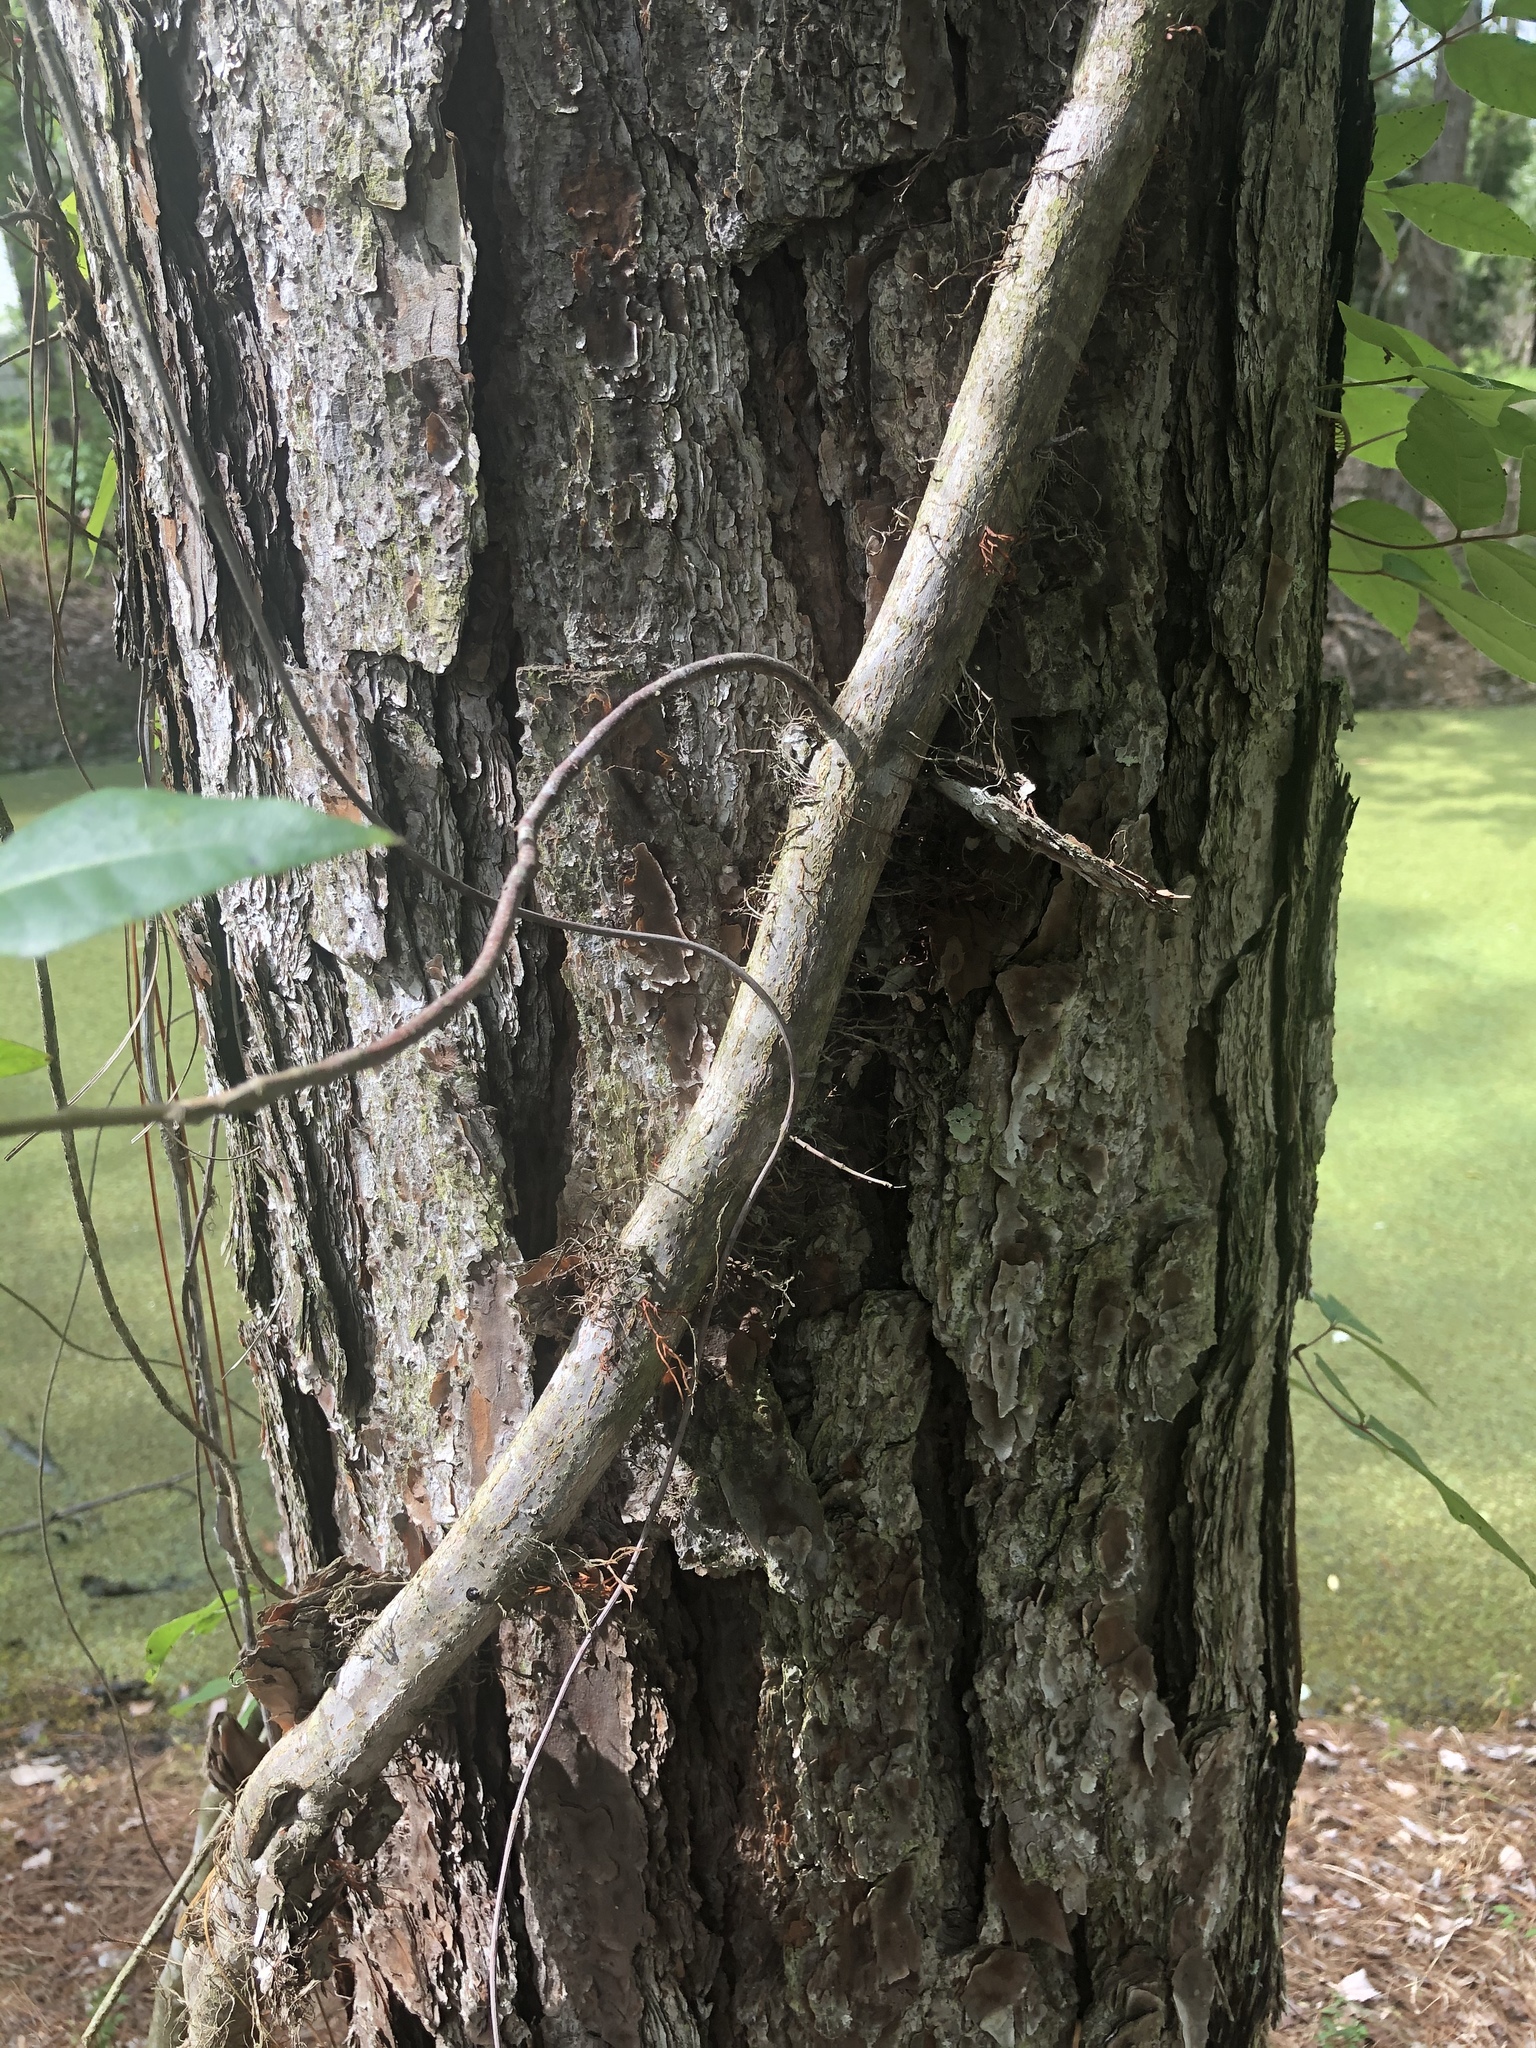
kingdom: Plantae
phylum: Tracheophyta
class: Magnoliopsida
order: Sapindales
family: Anacardiaceae
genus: Toxicodendron
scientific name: Toxicodendron radicans
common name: Poison ivy
